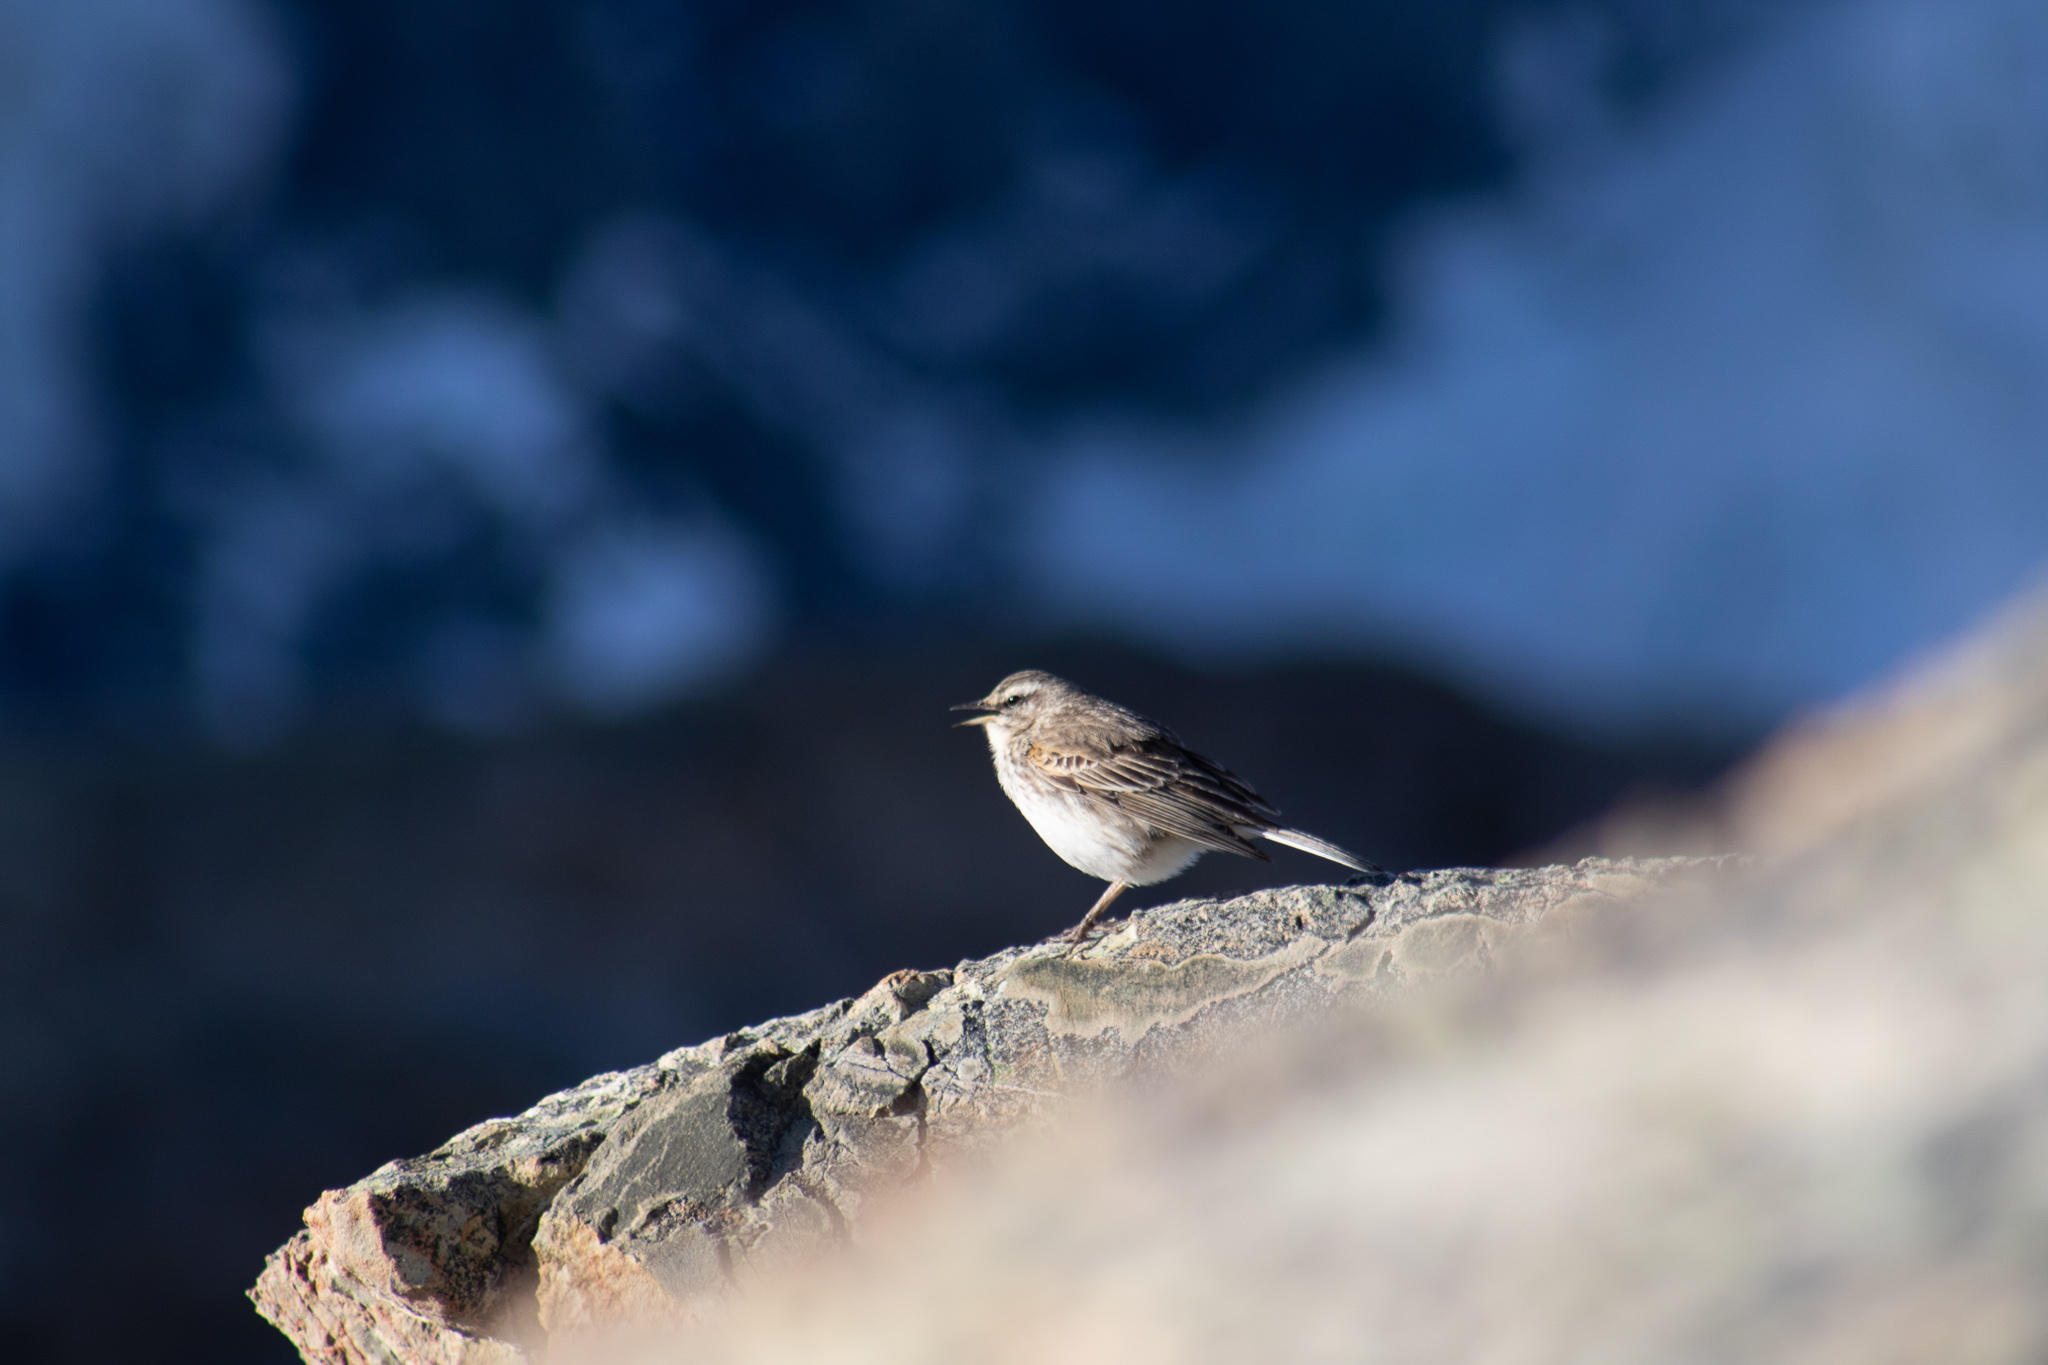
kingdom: Animalia
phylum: Chordata
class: Aves
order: Passeriformes
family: Motacillidae
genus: Anthus
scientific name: Anthus novaeseelandiae
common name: New zealand pipit
